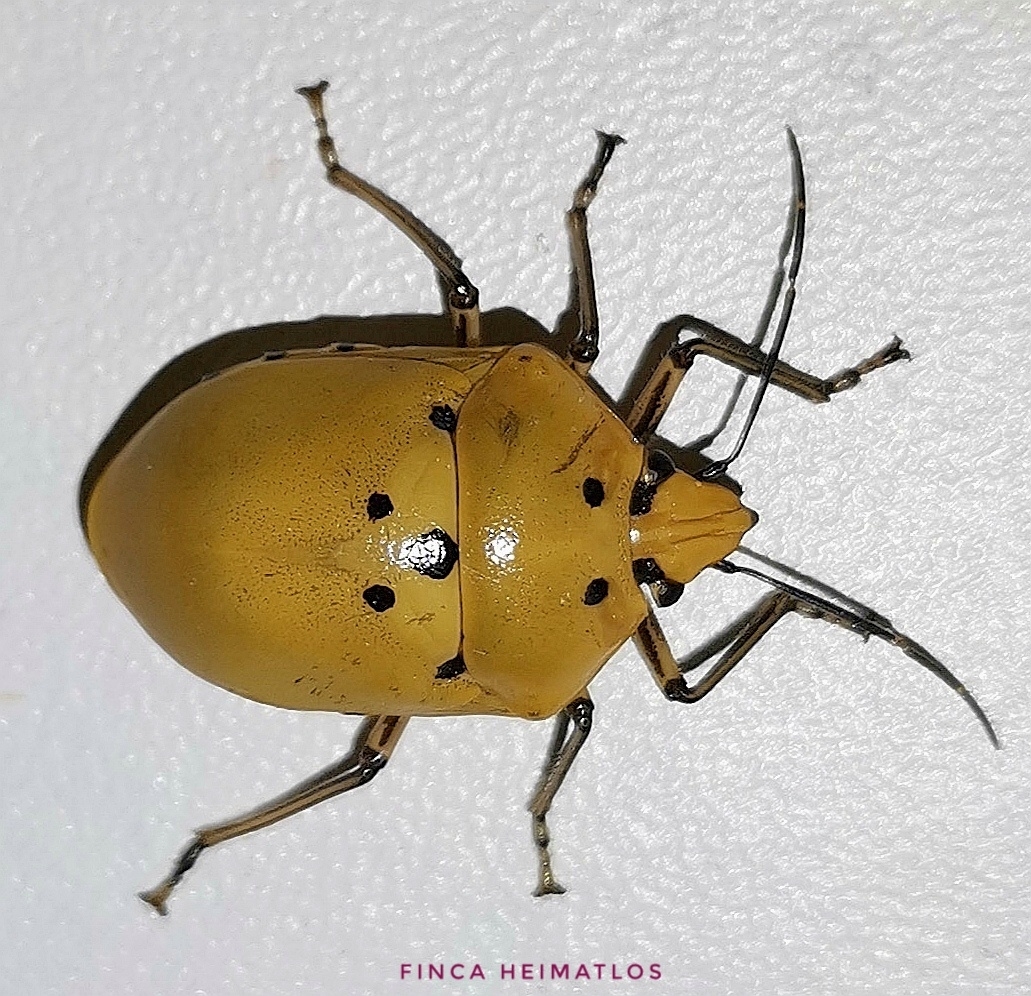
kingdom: Animalia
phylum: Arthropoda
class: Insecta
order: Hemiptera
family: Scutelleridae
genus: Augocoris
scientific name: Augocoris gomesii
